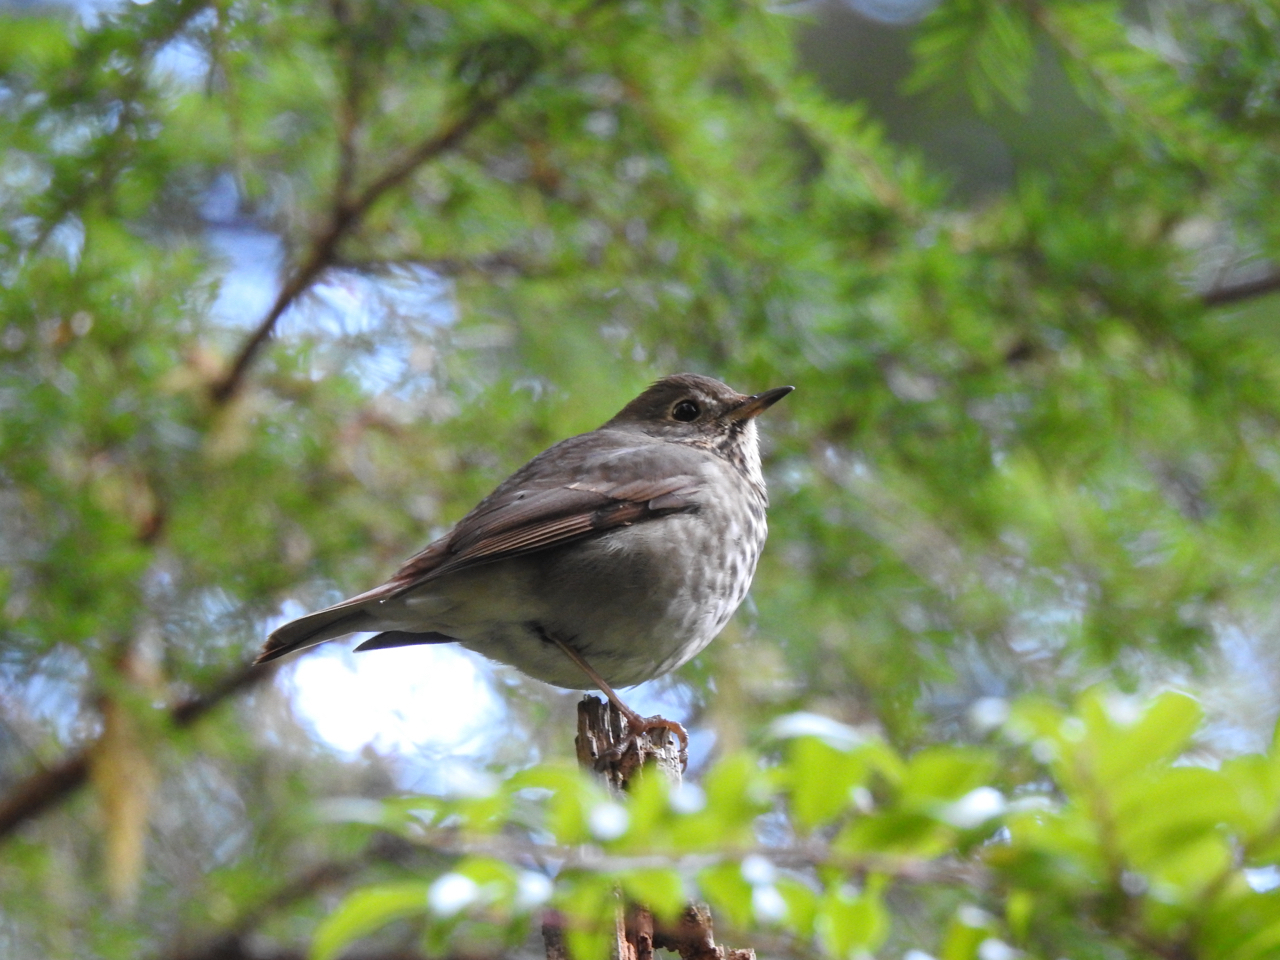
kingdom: Animalia
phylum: Chordata
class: Aves
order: Passeriformes
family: Turdidae
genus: Catharus
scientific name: Catharus guttatus
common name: Hermit thrush
